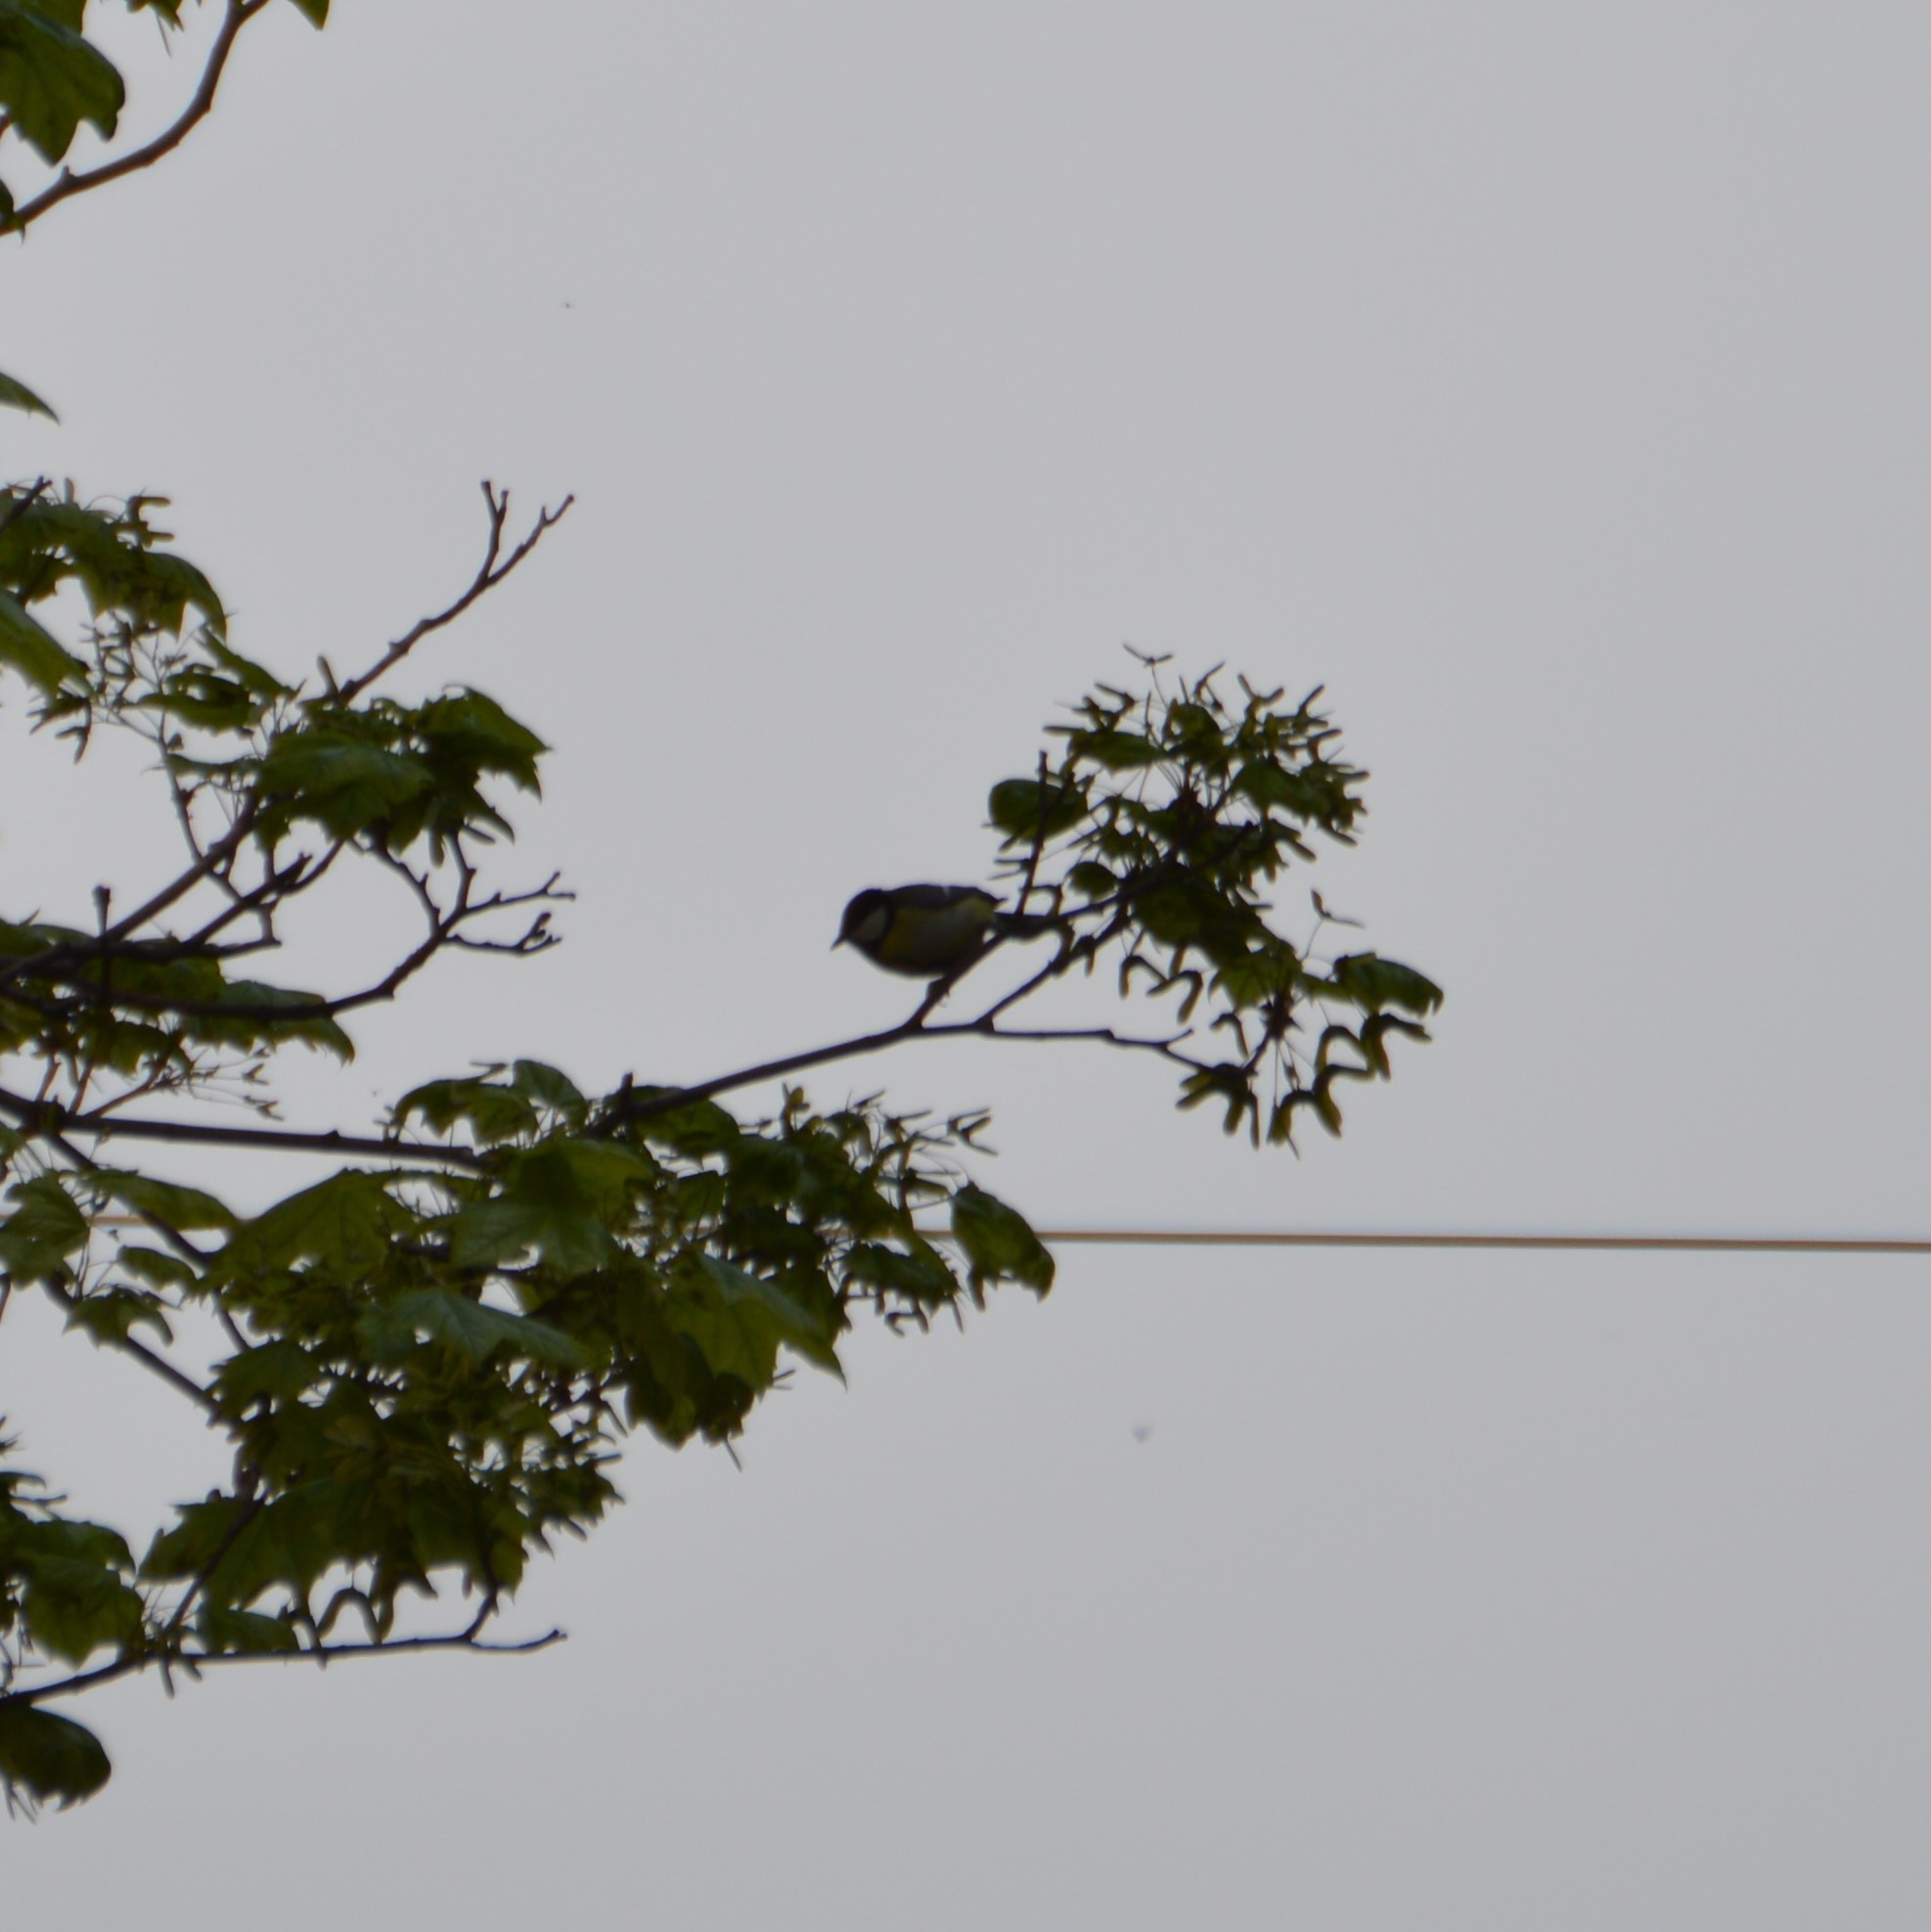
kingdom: Animalia
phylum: Chordata
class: Aves
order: Passeriformes
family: Paridae
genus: Parus
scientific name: Parus major
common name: Great tit
